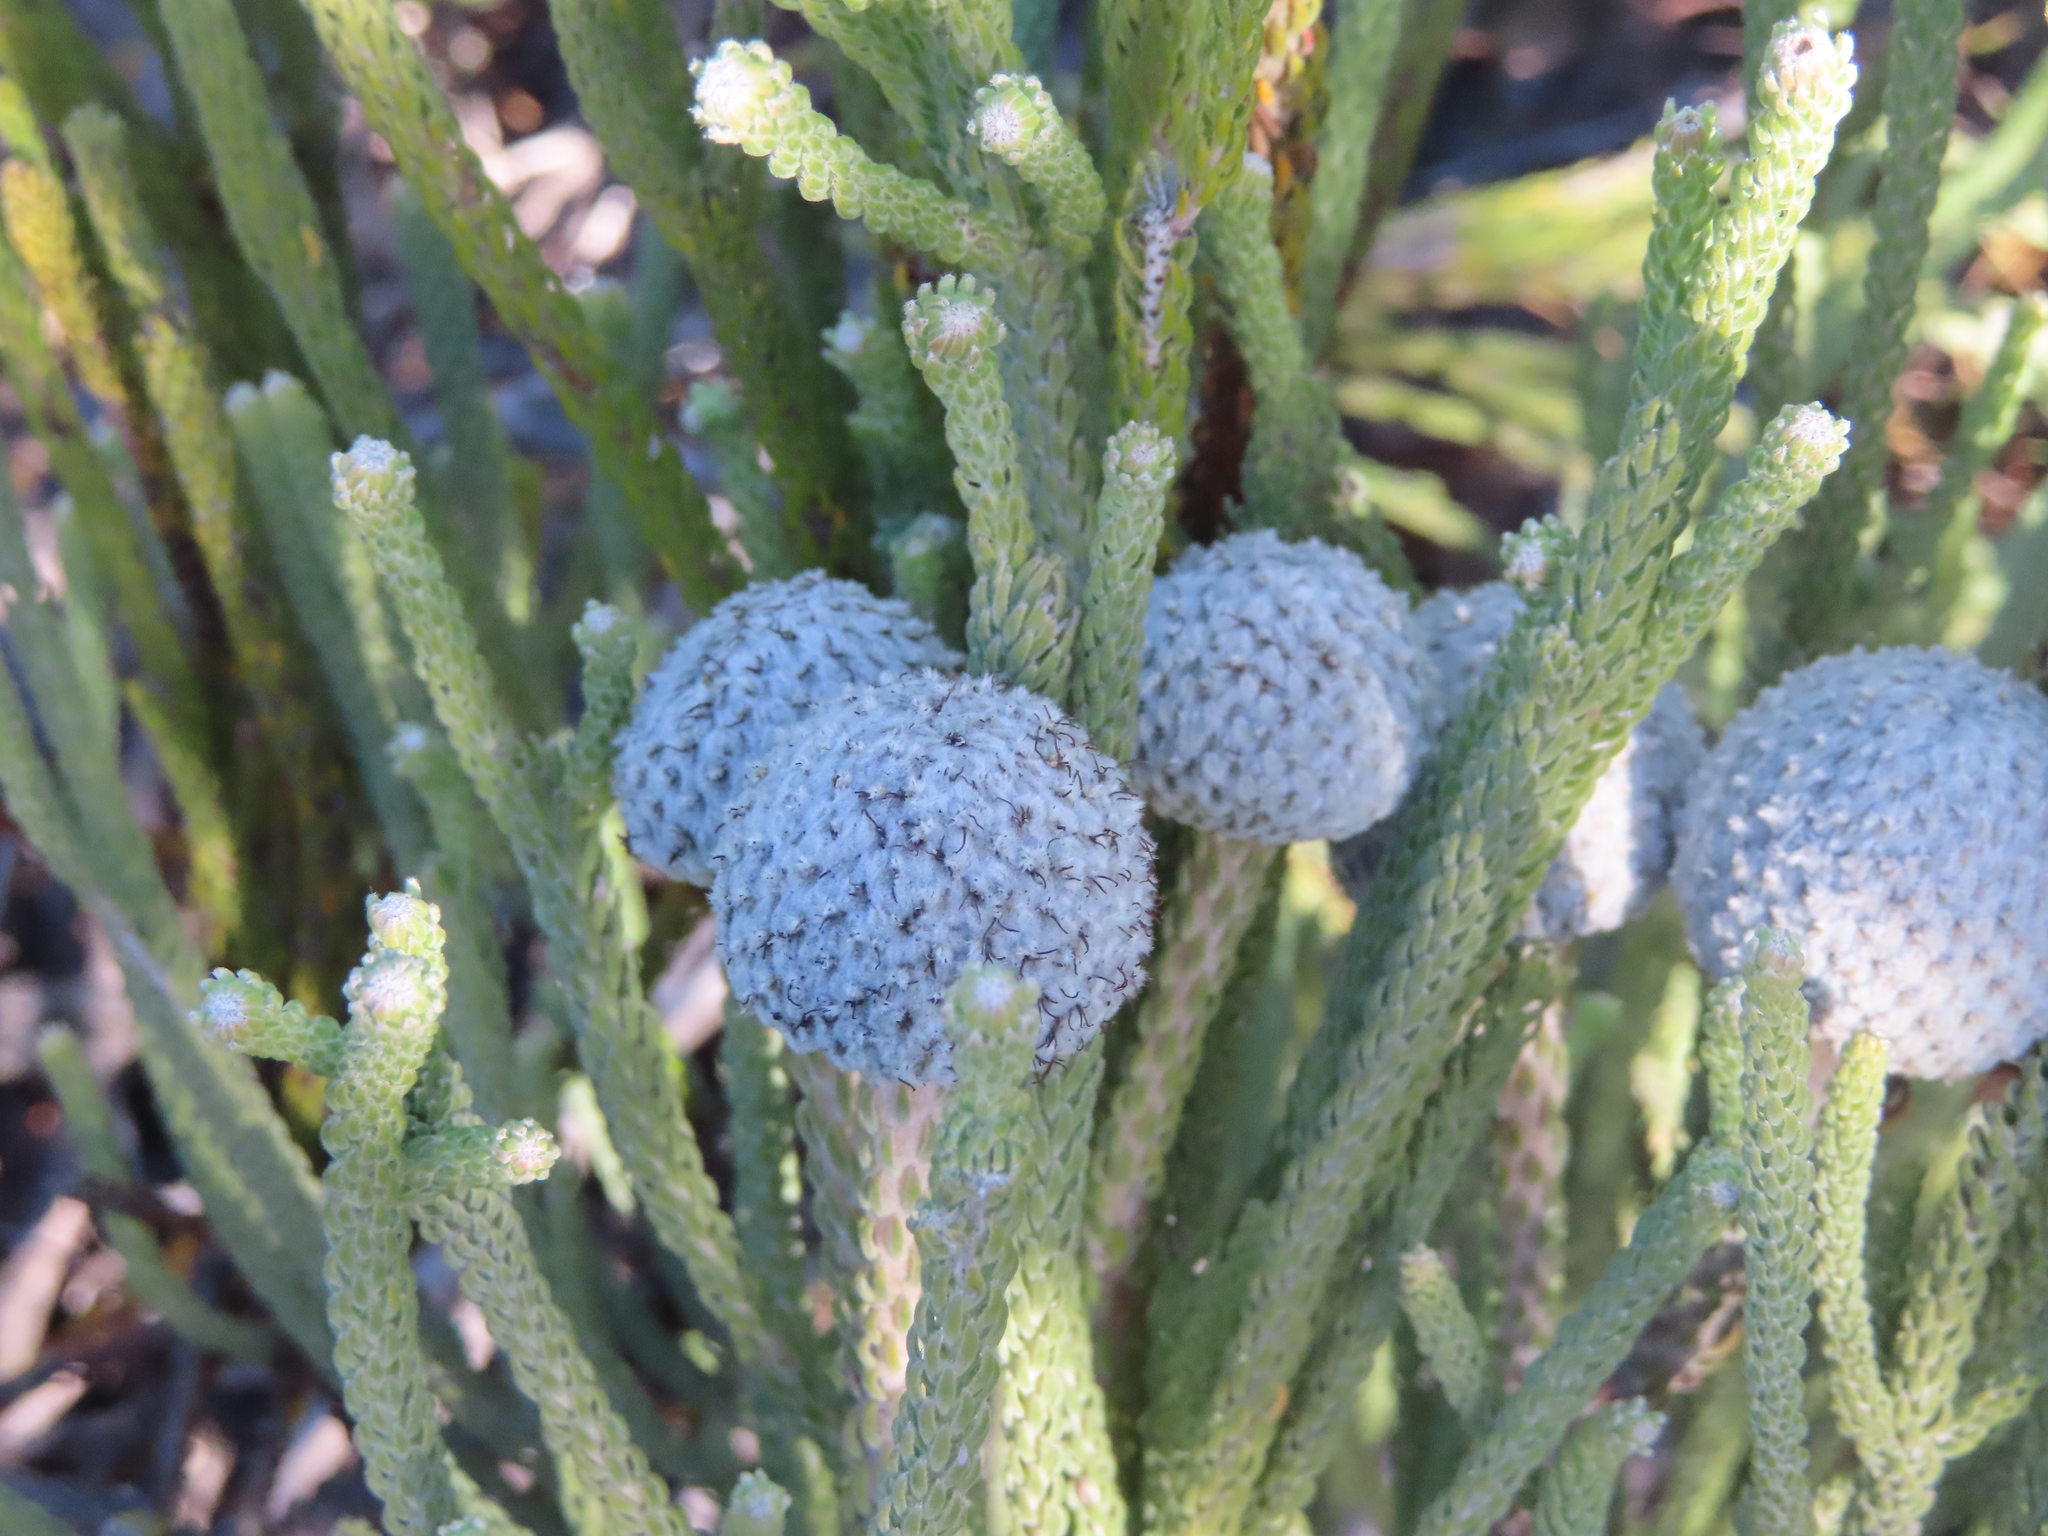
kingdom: Plantae
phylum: Tracheophyta
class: Magnoliopsida
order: Bruniales
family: Bruniaceae
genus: Brunia
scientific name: Brunia laevis
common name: Silver brunia
